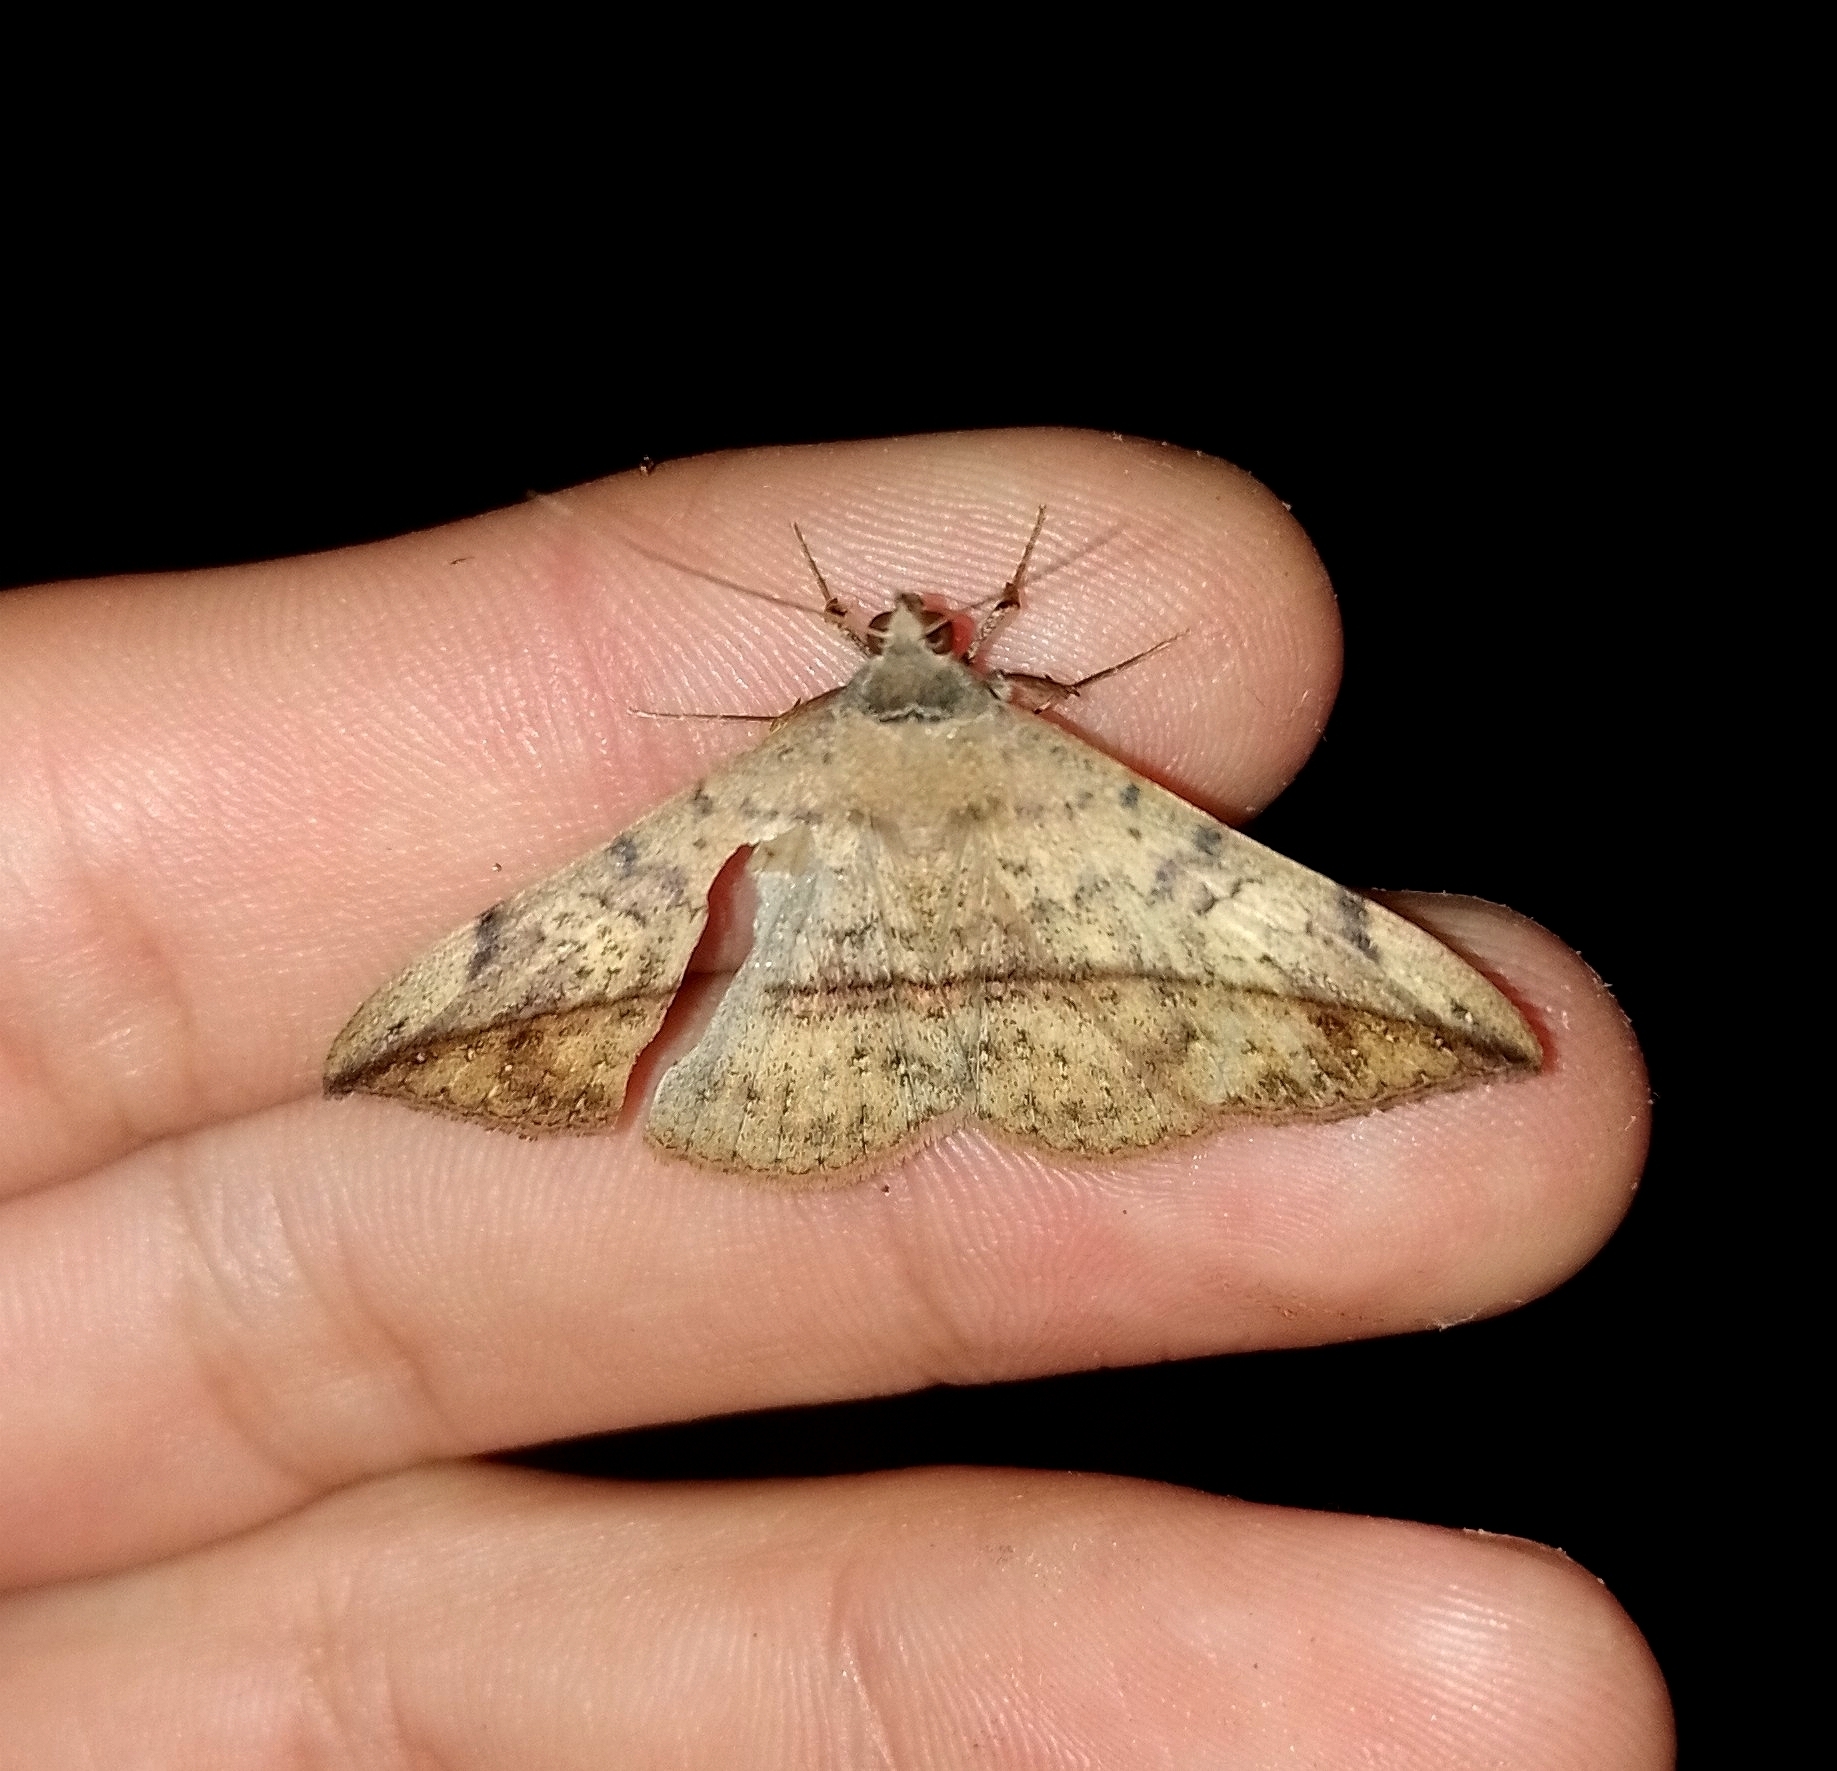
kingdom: Animalia
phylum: Arthropoda
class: Insecta
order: Lepidoptera
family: Erebidae
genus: Anticarsia
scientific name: Anticarsia gemmatalis
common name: Cutworm moth
